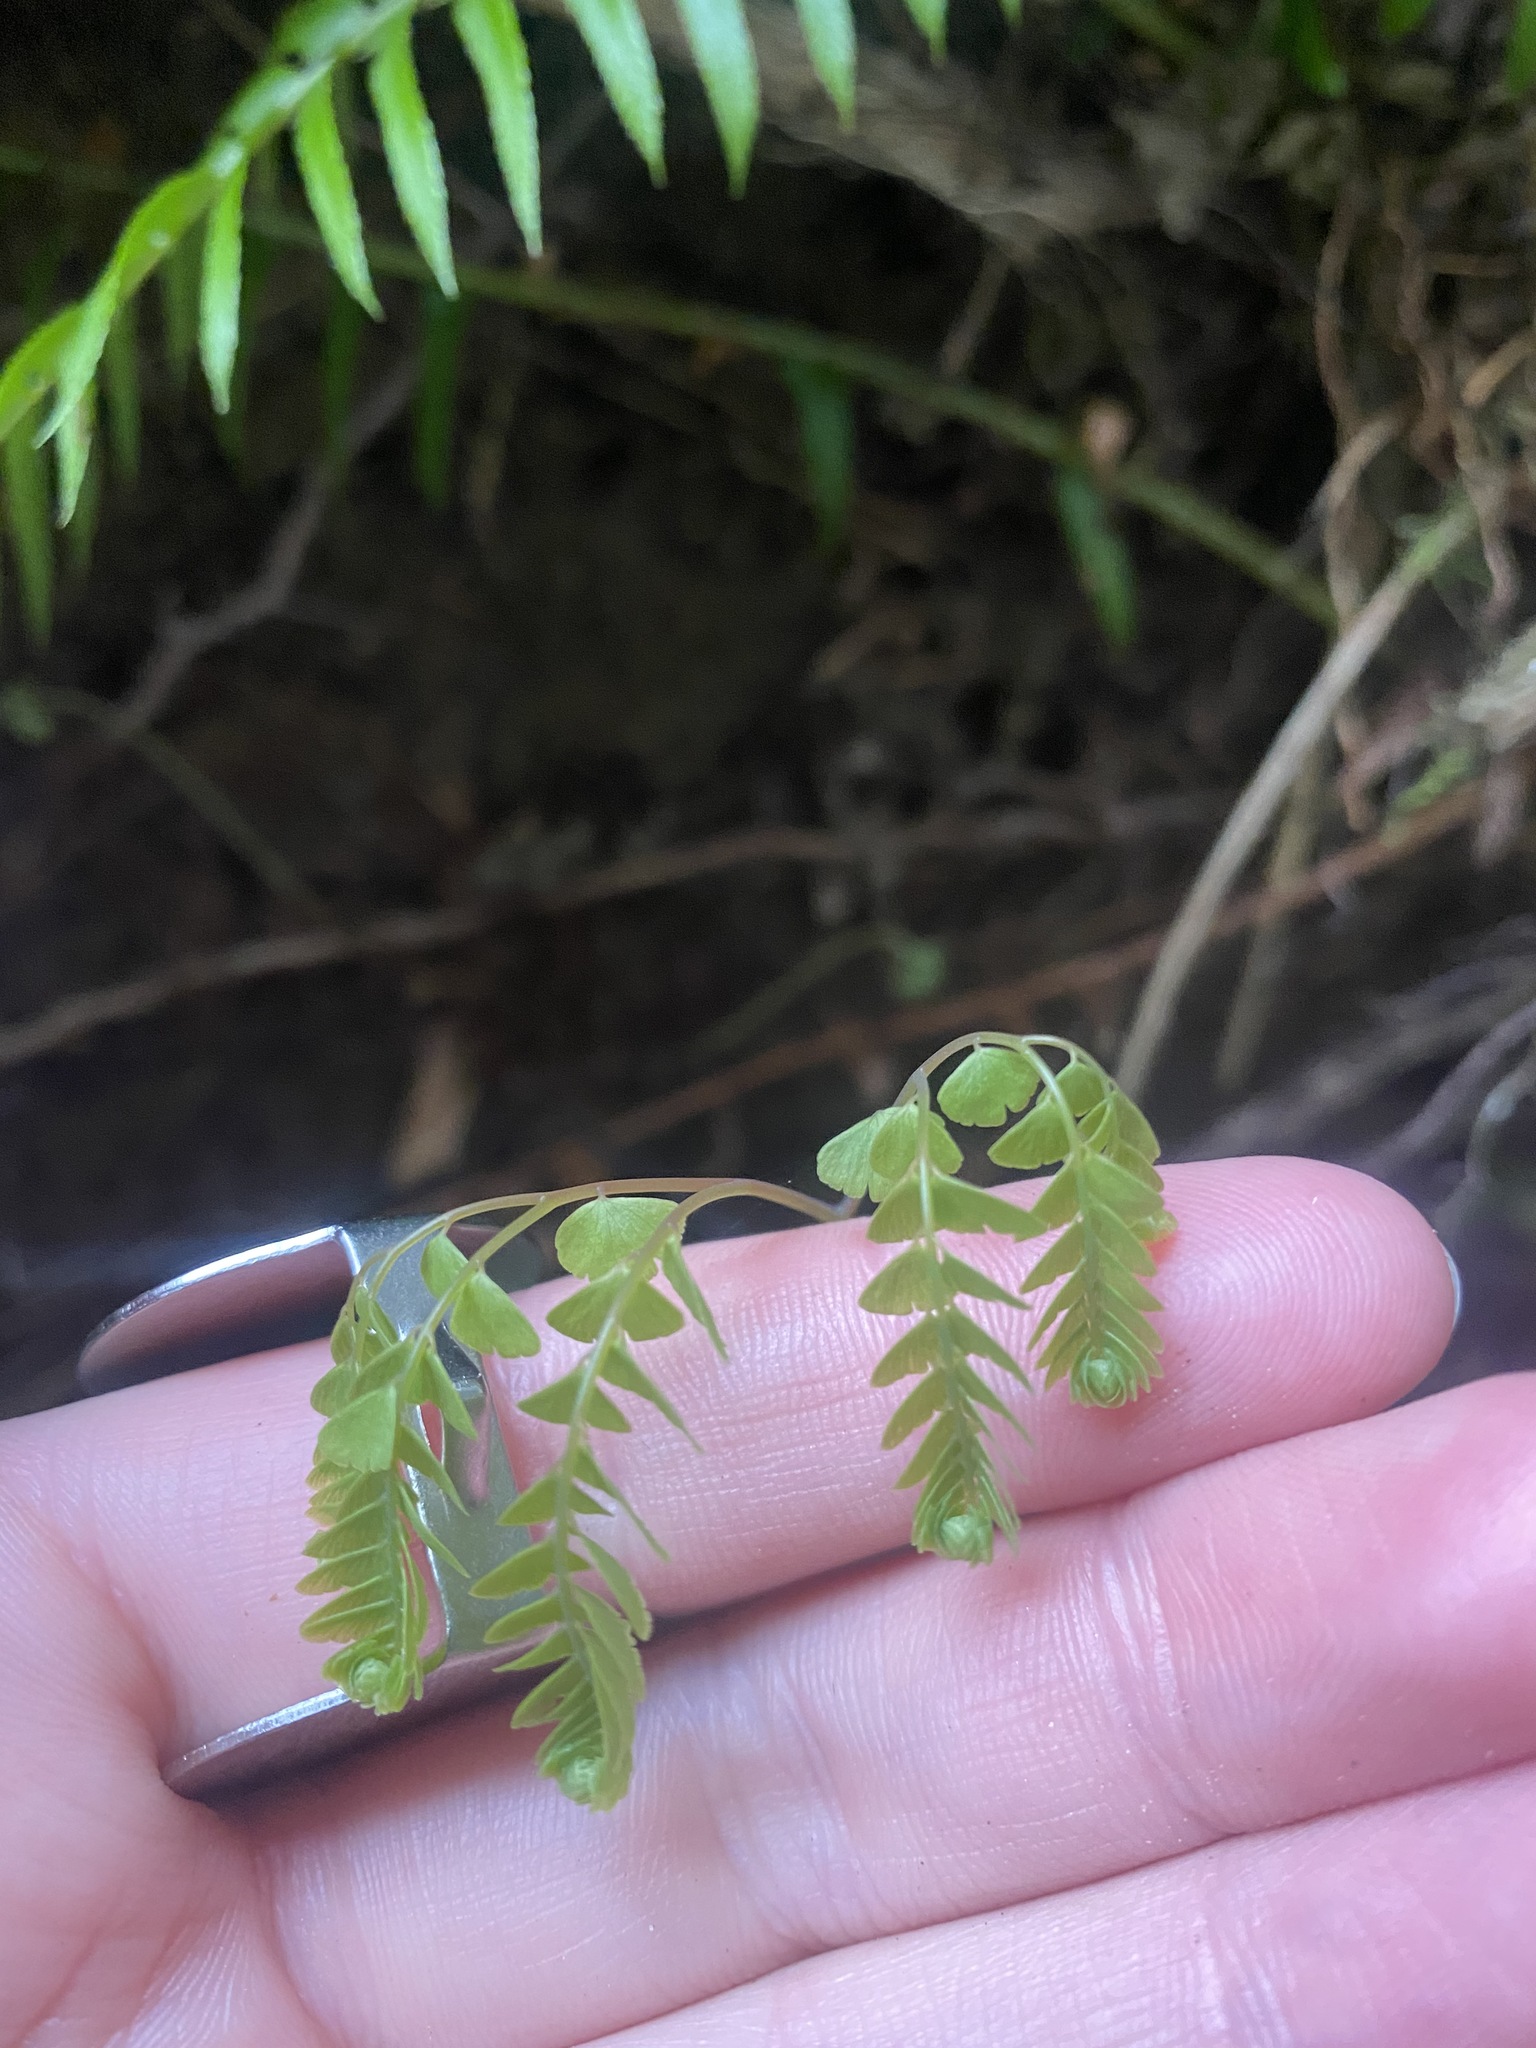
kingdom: Plantae
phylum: Tracheophyta
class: Polypodiopsida
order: Polypodiales
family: Pteridaceae
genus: Adiantum
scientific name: Adiantum aleuticum
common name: Aleutian maidenhair fern
